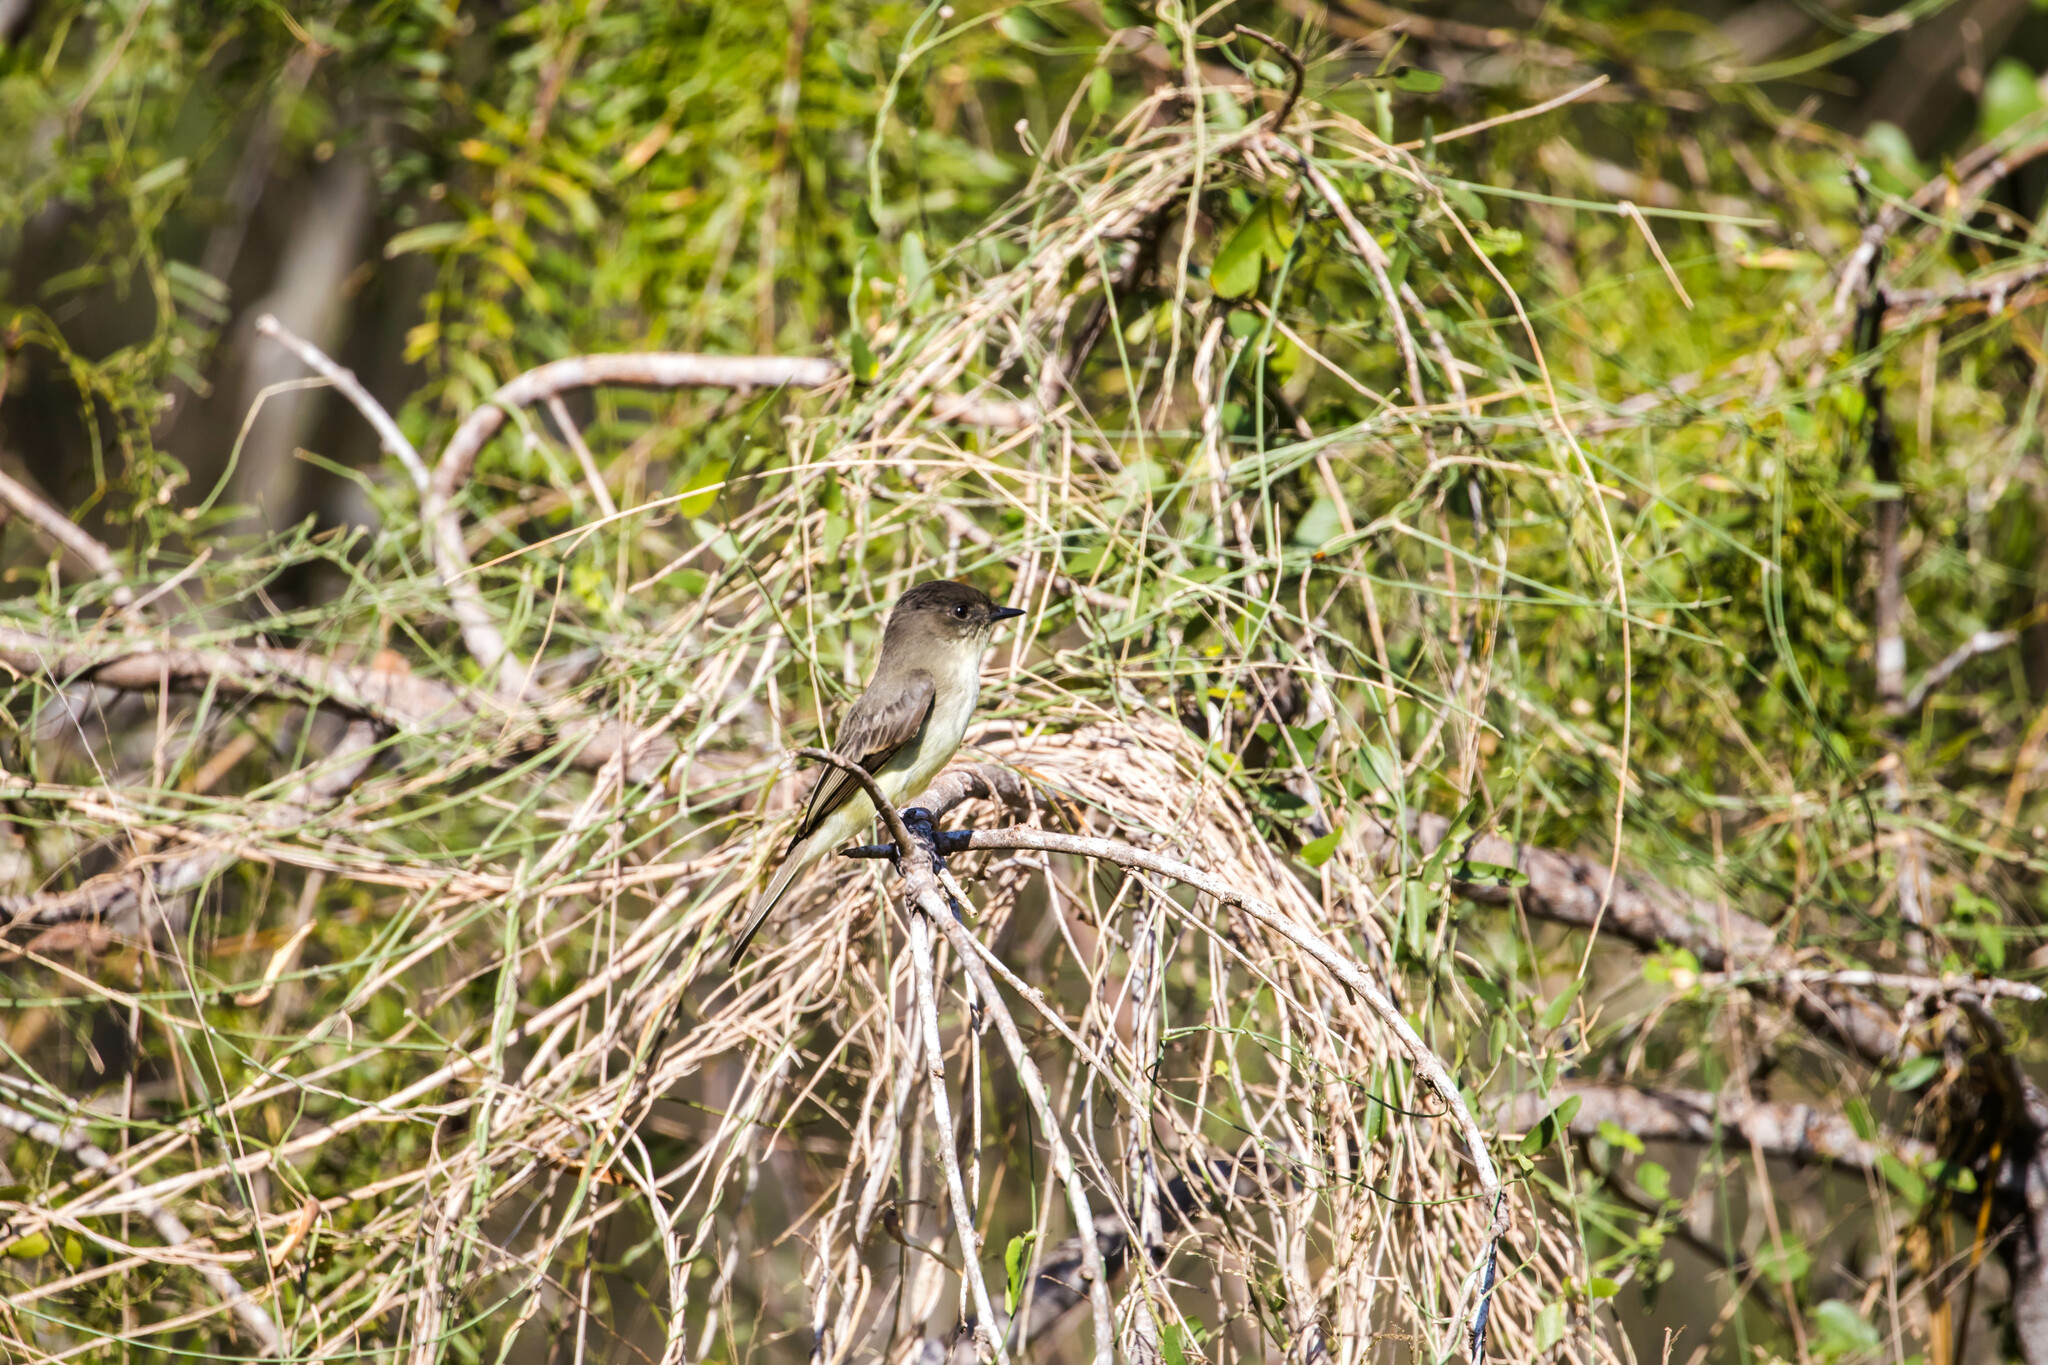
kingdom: Animalia
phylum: Chordata
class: Aves
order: Passeriformes
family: Tyrannidae
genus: Sayornis
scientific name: Sayornis phoebe
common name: Eastern phoebe
